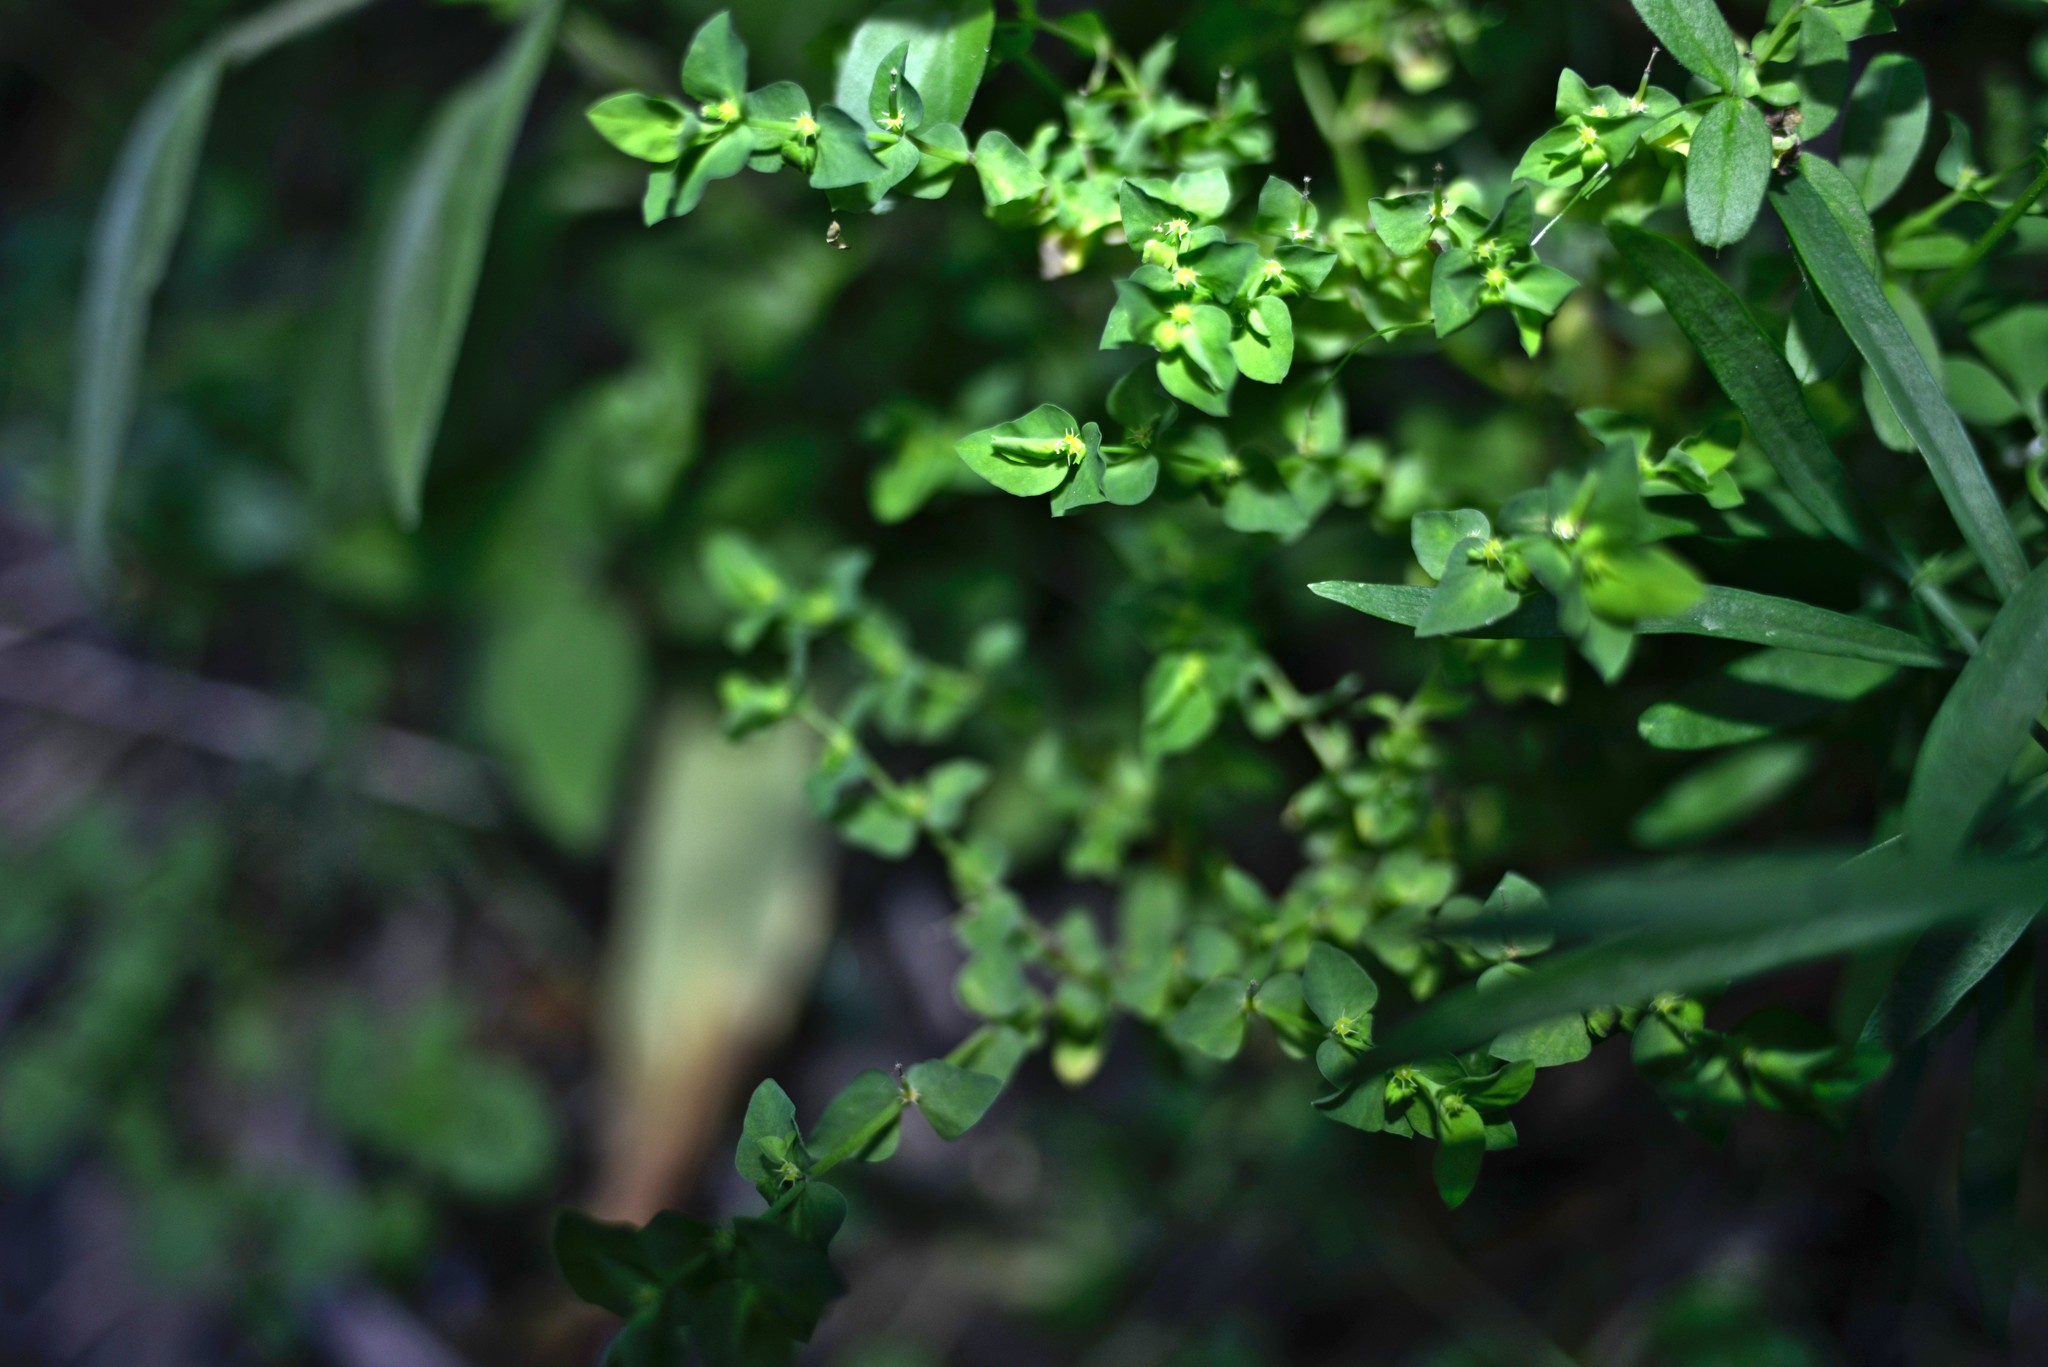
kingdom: Plantae
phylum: Tracheophyta
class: Magnoliopsida
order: Malpighiales
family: Euphorbiaceae
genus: Euphorbia
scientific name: Euphorbia peplus
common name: Petty spurge
